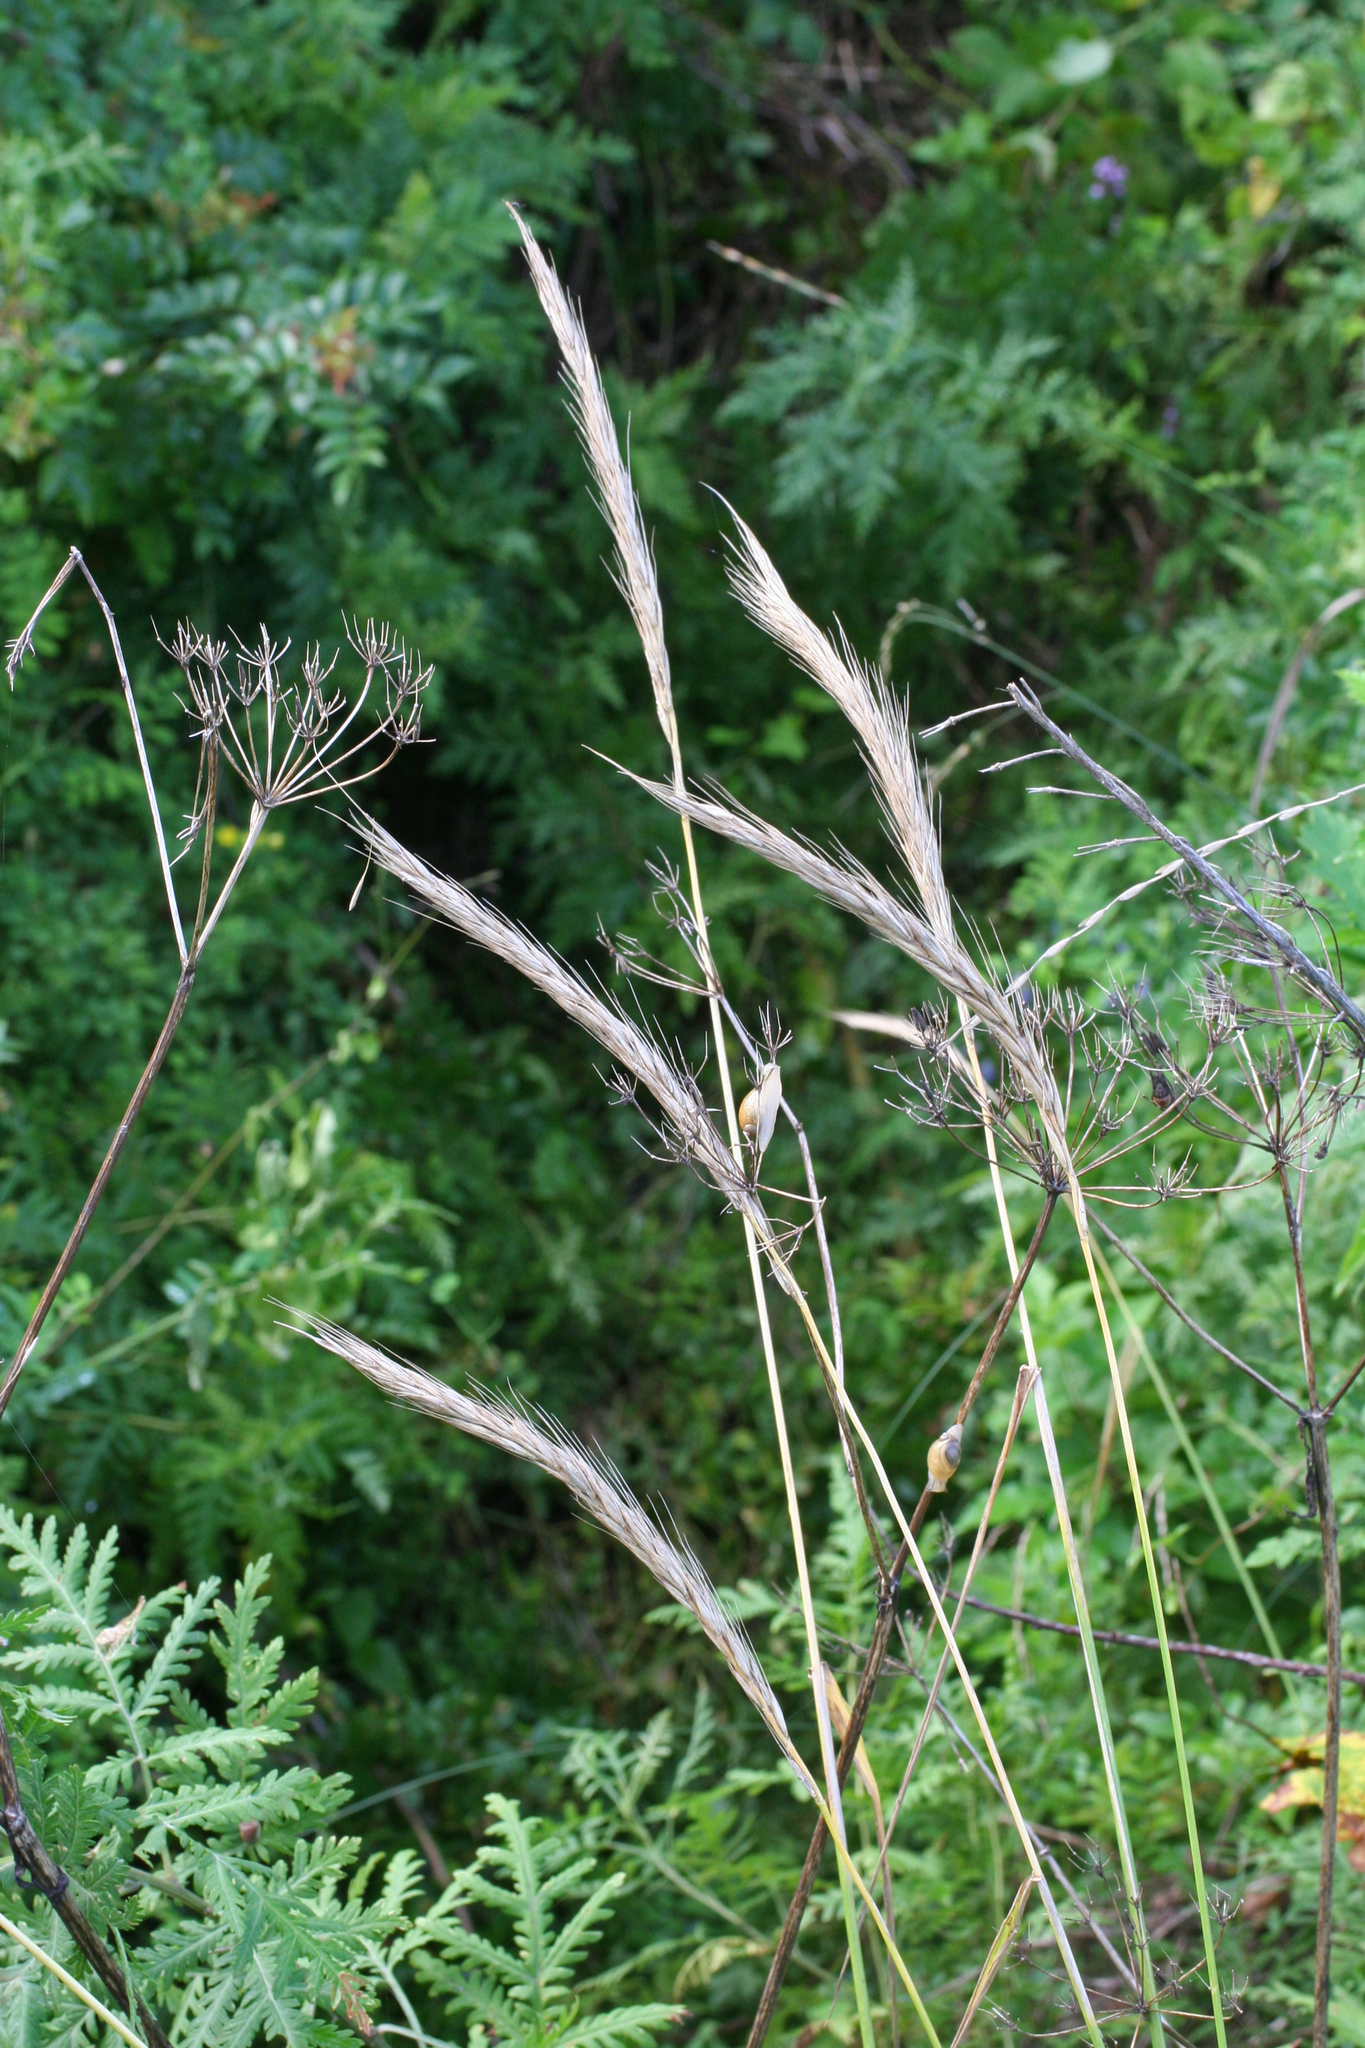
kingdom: Plantae
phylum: Tracheophyta
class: Liliopsida
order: Poales
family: Poaceae
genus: Leymus
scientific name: Leymus mollis
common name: American dune grass
